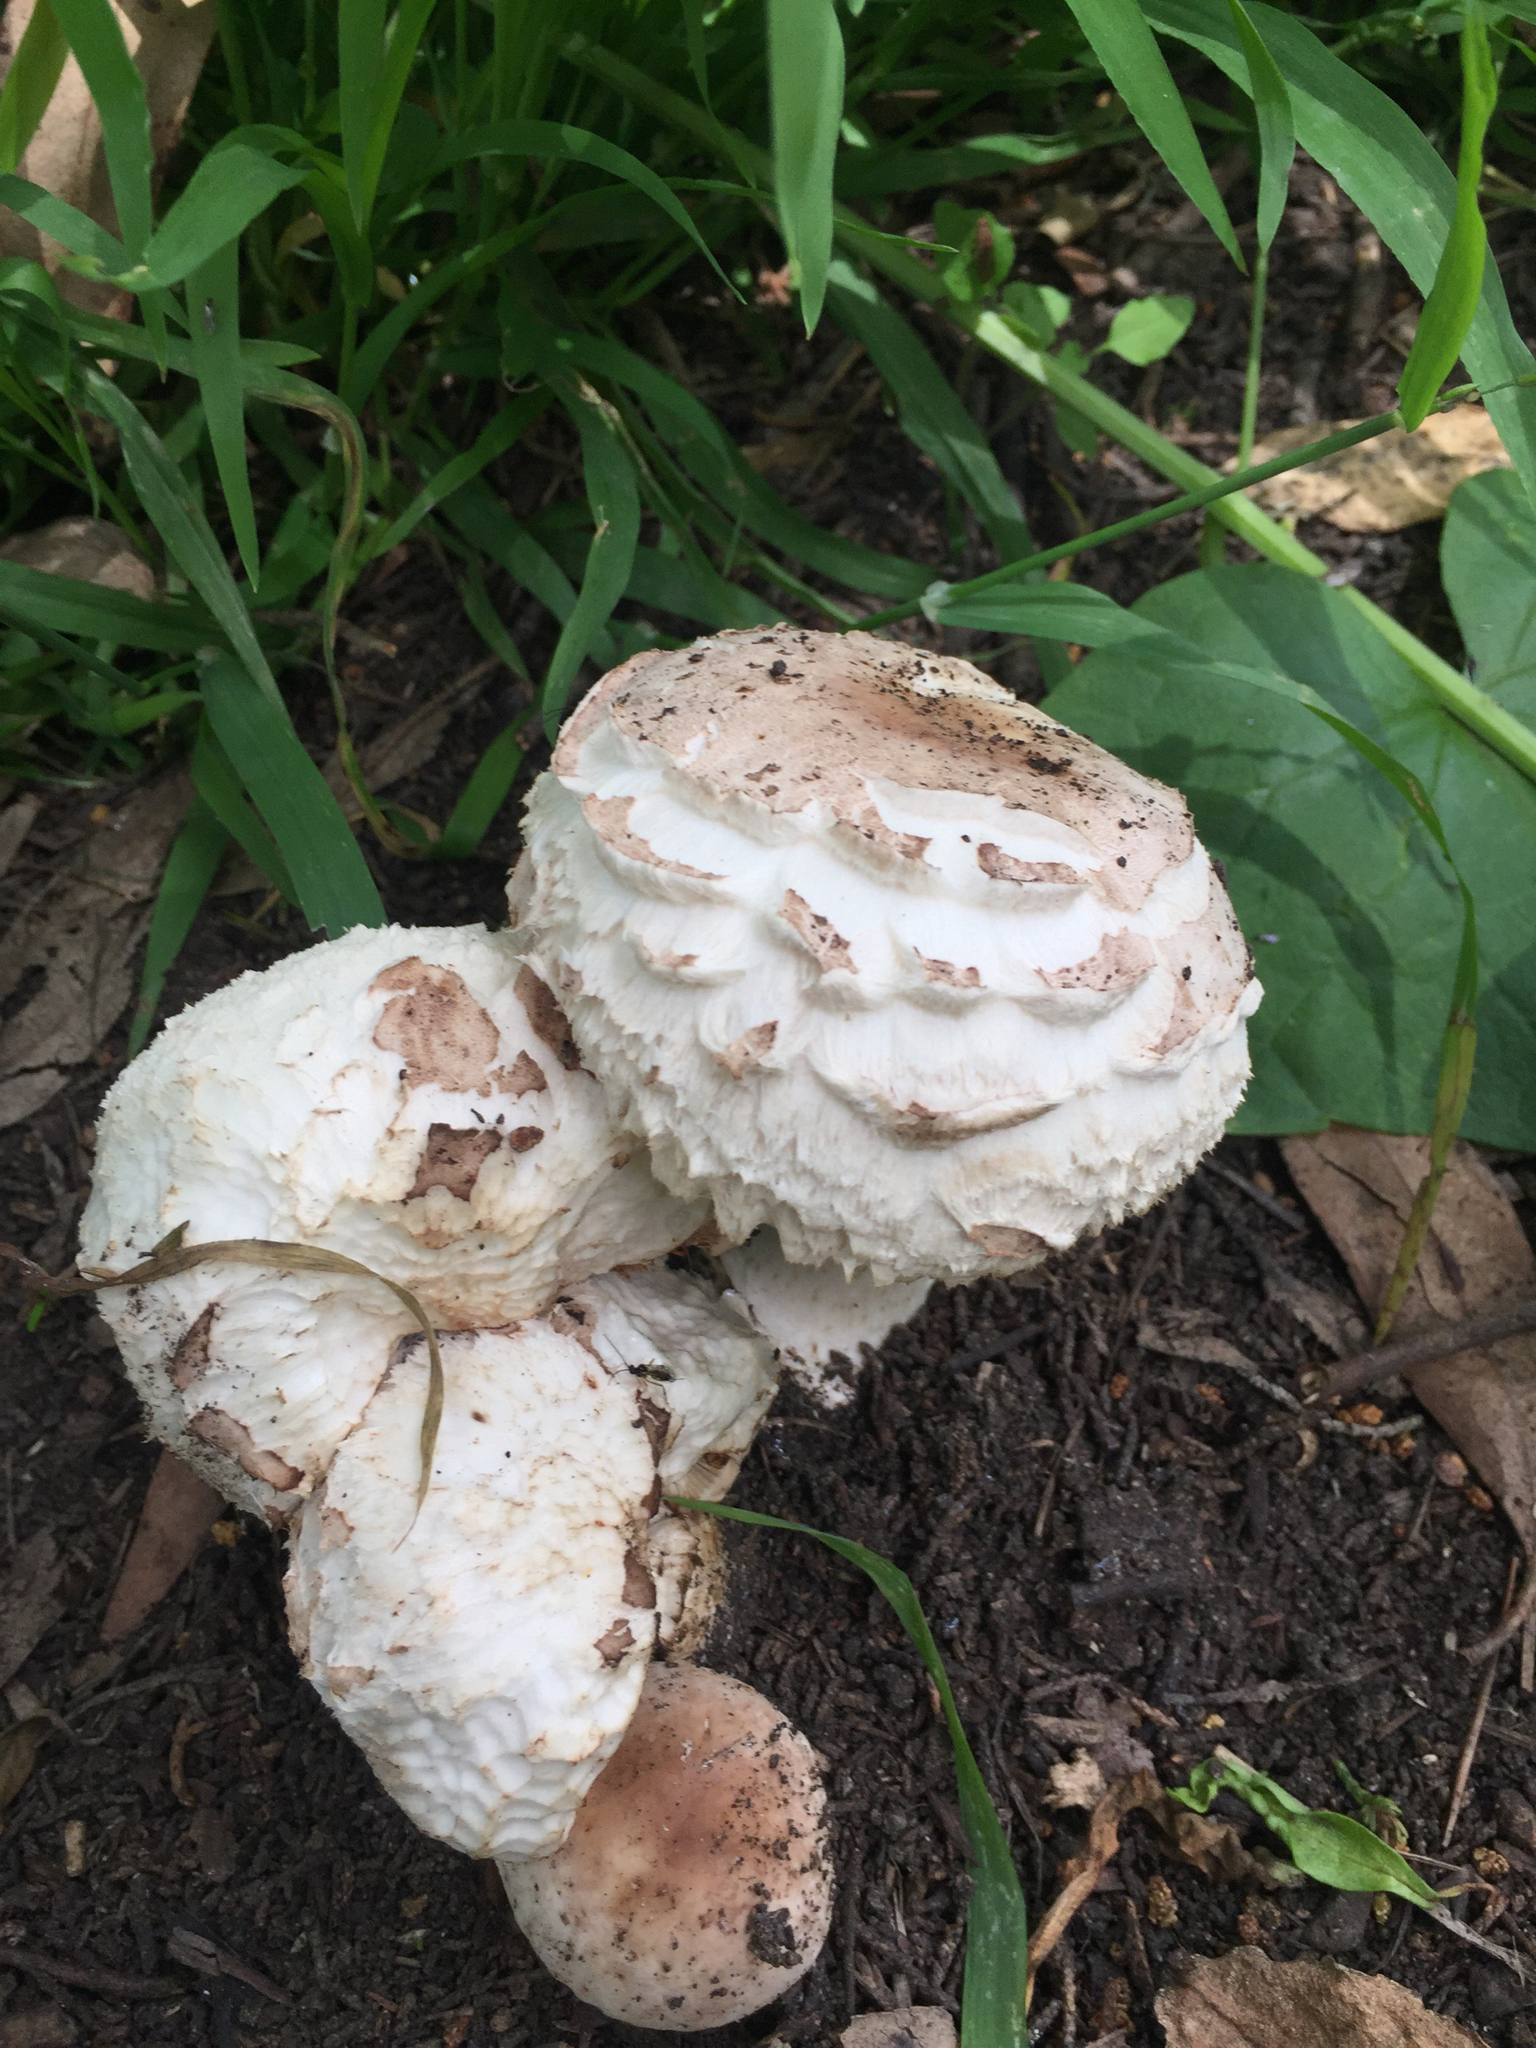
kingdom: Fungi
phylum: Basidiomycota
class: Agaricomycetes
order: Agaricales
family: Agaricaceae
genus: Chlorophyllum
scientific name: Chlorophyllum brunneum
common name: Brown parasol
